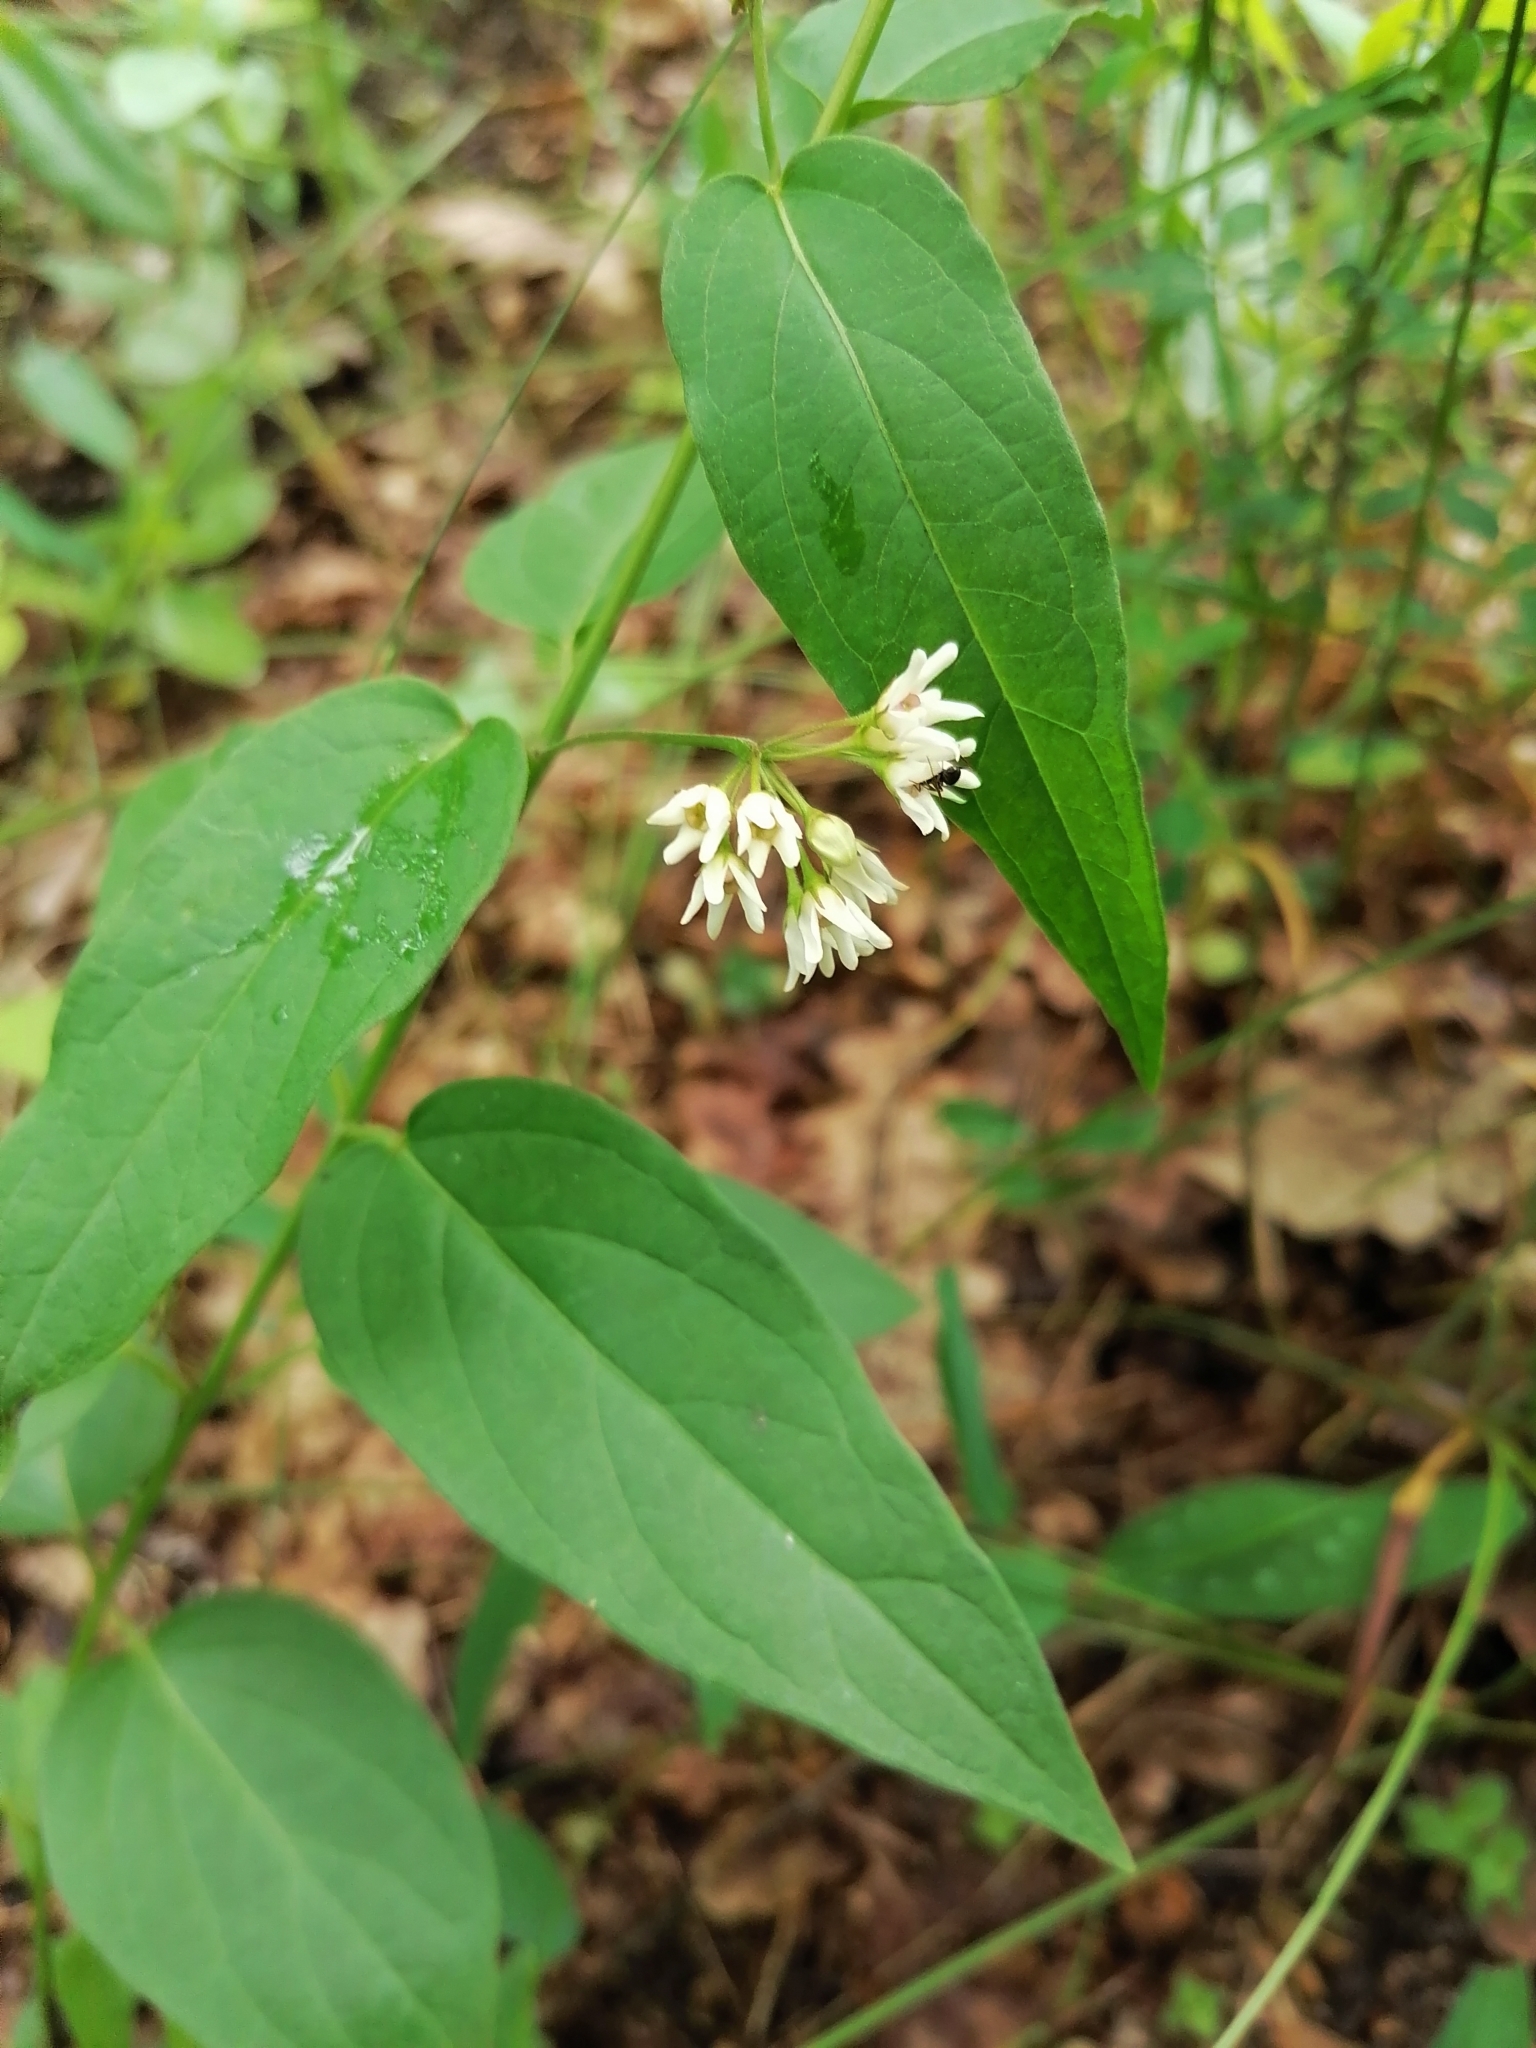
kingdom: Plantae
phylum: Tracheophyta
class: Magnoliopsida
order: Gentianales
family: Apocynaceae
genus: Vincetoxicum
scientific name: Vincetoxicum hirundinaria
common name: White swallowwort
